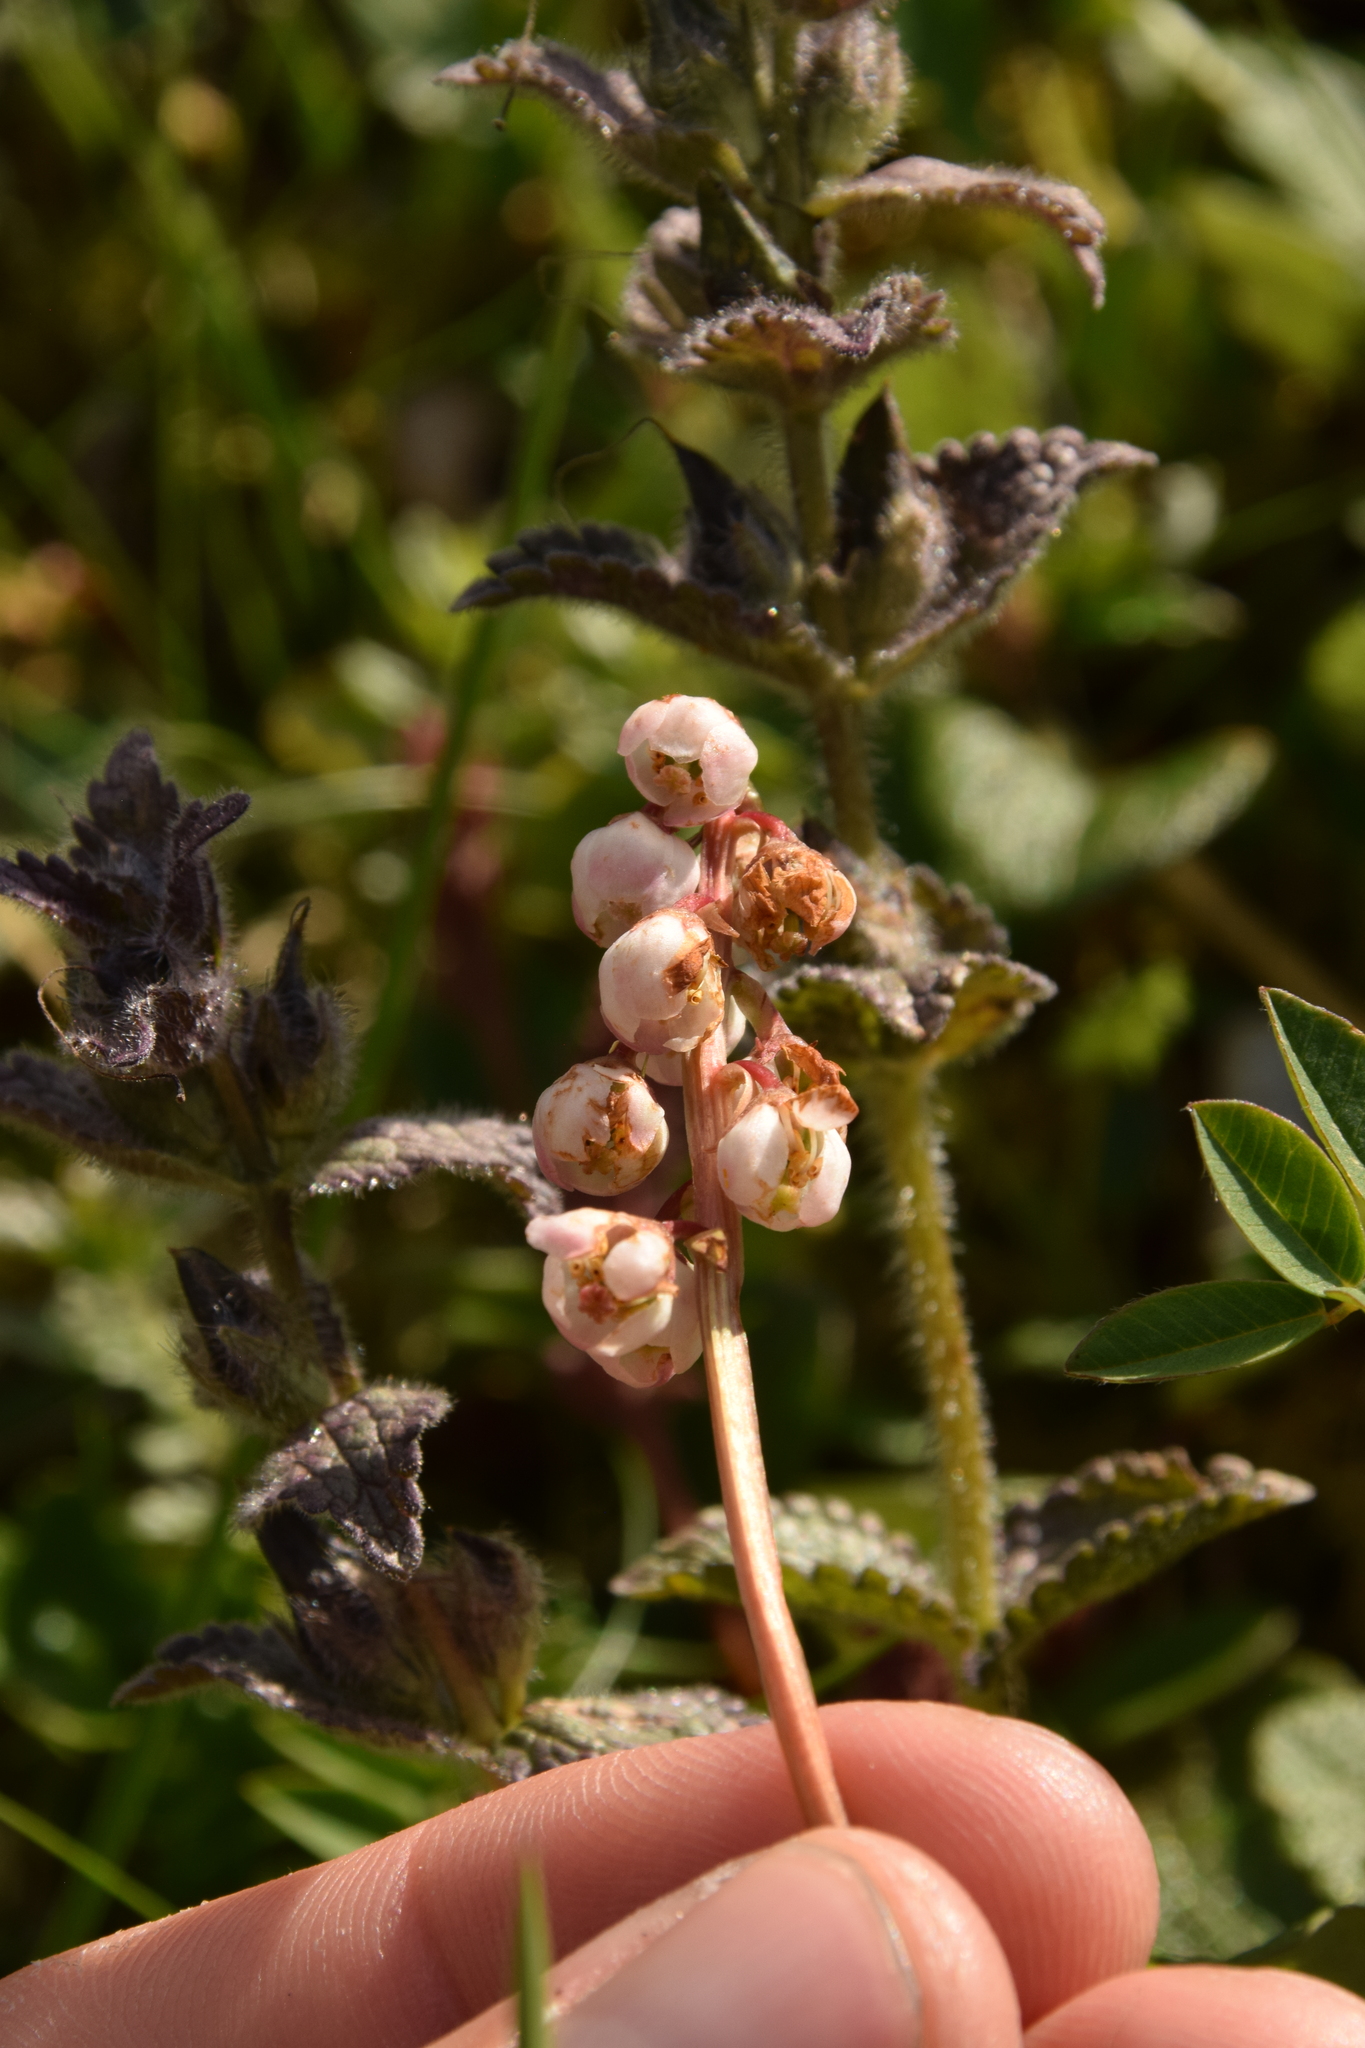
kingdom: Plantae
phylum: Tracheophyta
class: Magnoliopsida
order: Ericales
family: Ericaceae
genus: Pyrola
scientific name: Pyrola minor
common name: Common wintergreen
